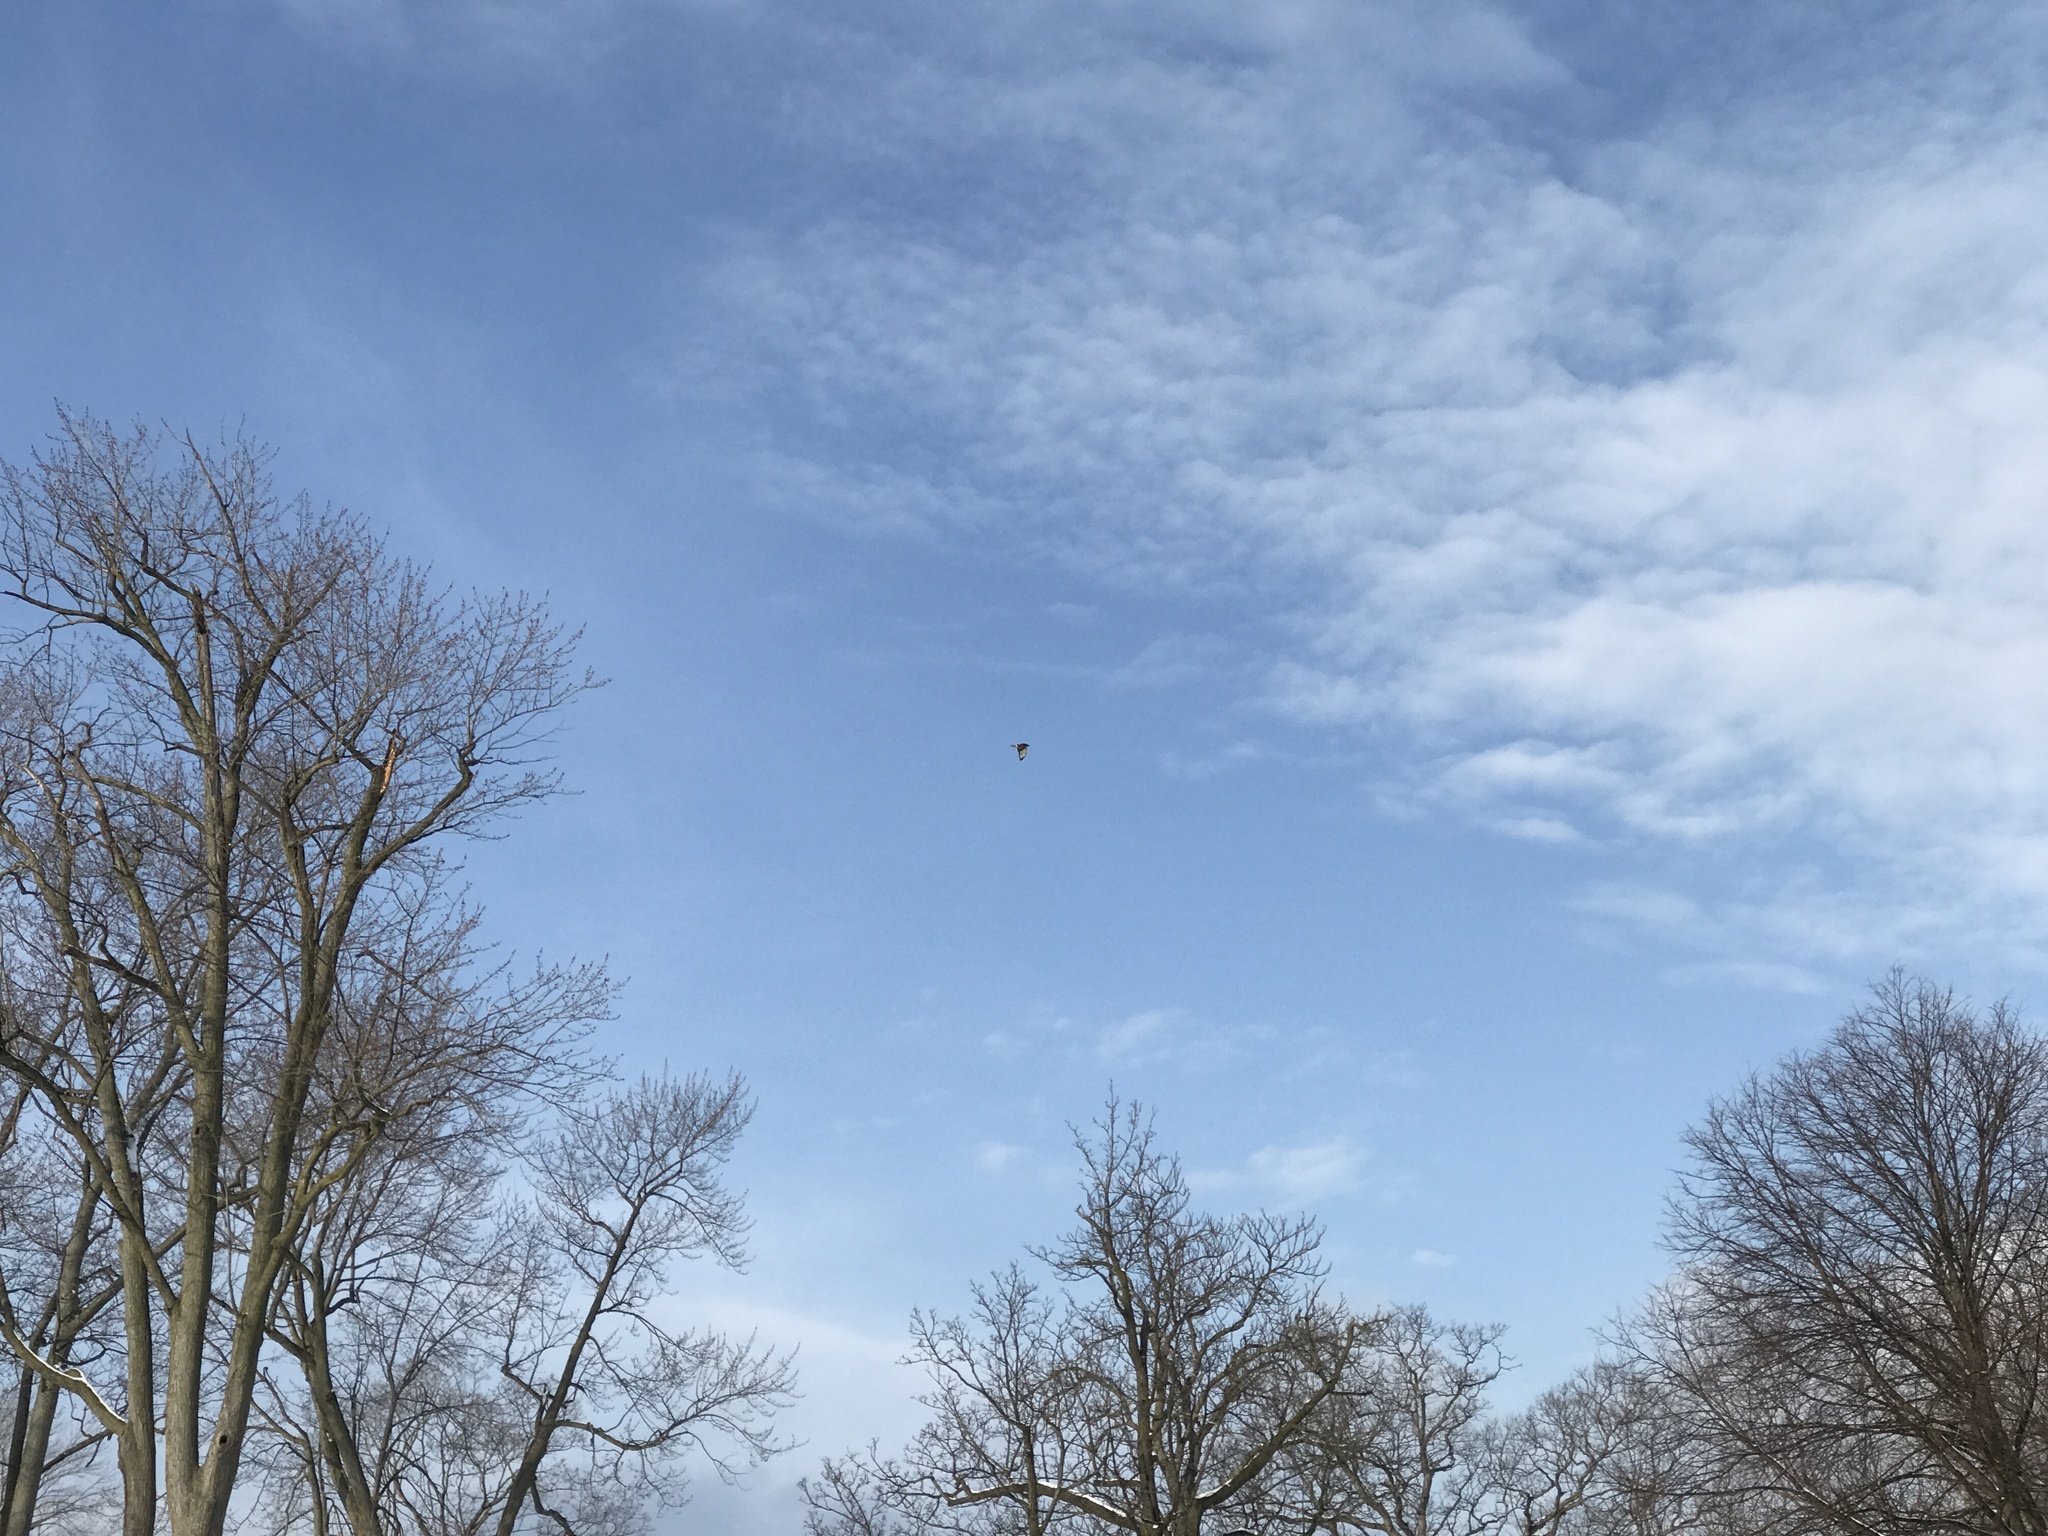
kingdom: Animalia
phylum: Chordata
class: Aves
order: Accipitriformes
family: Accipitridae
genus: Buteo
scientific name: Buteo jamaicensis
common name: Red-tailed hawk
